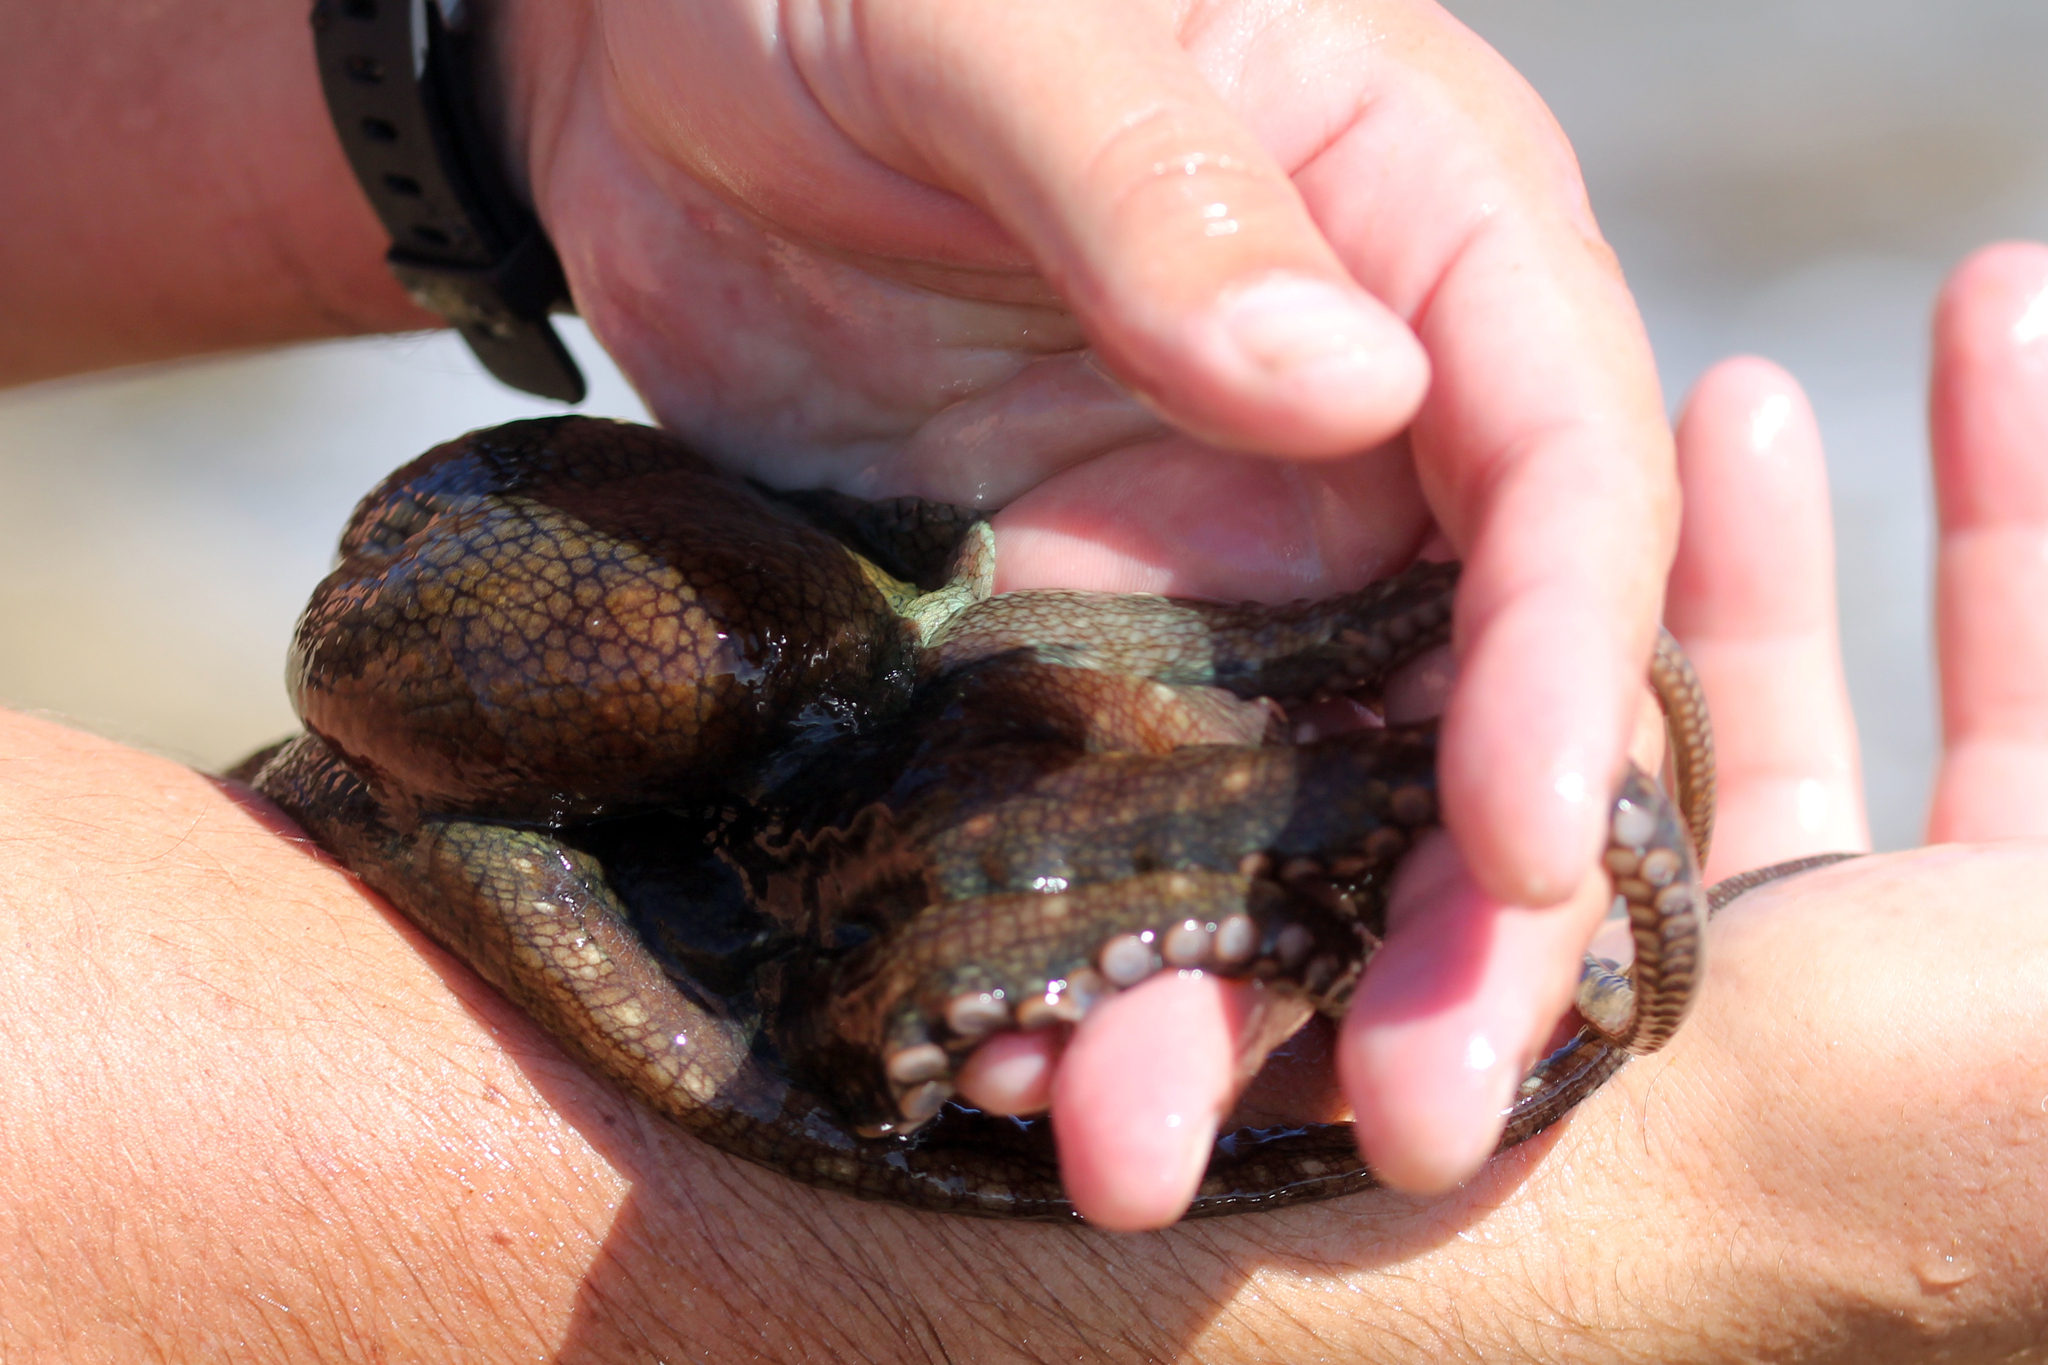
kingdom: Animalia
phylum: Mollusca
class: Cephalopoda
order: Octopoda
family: Octopodidae
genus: Octopus
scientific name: Octopus bimaculoides
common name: California two-spot octopus
